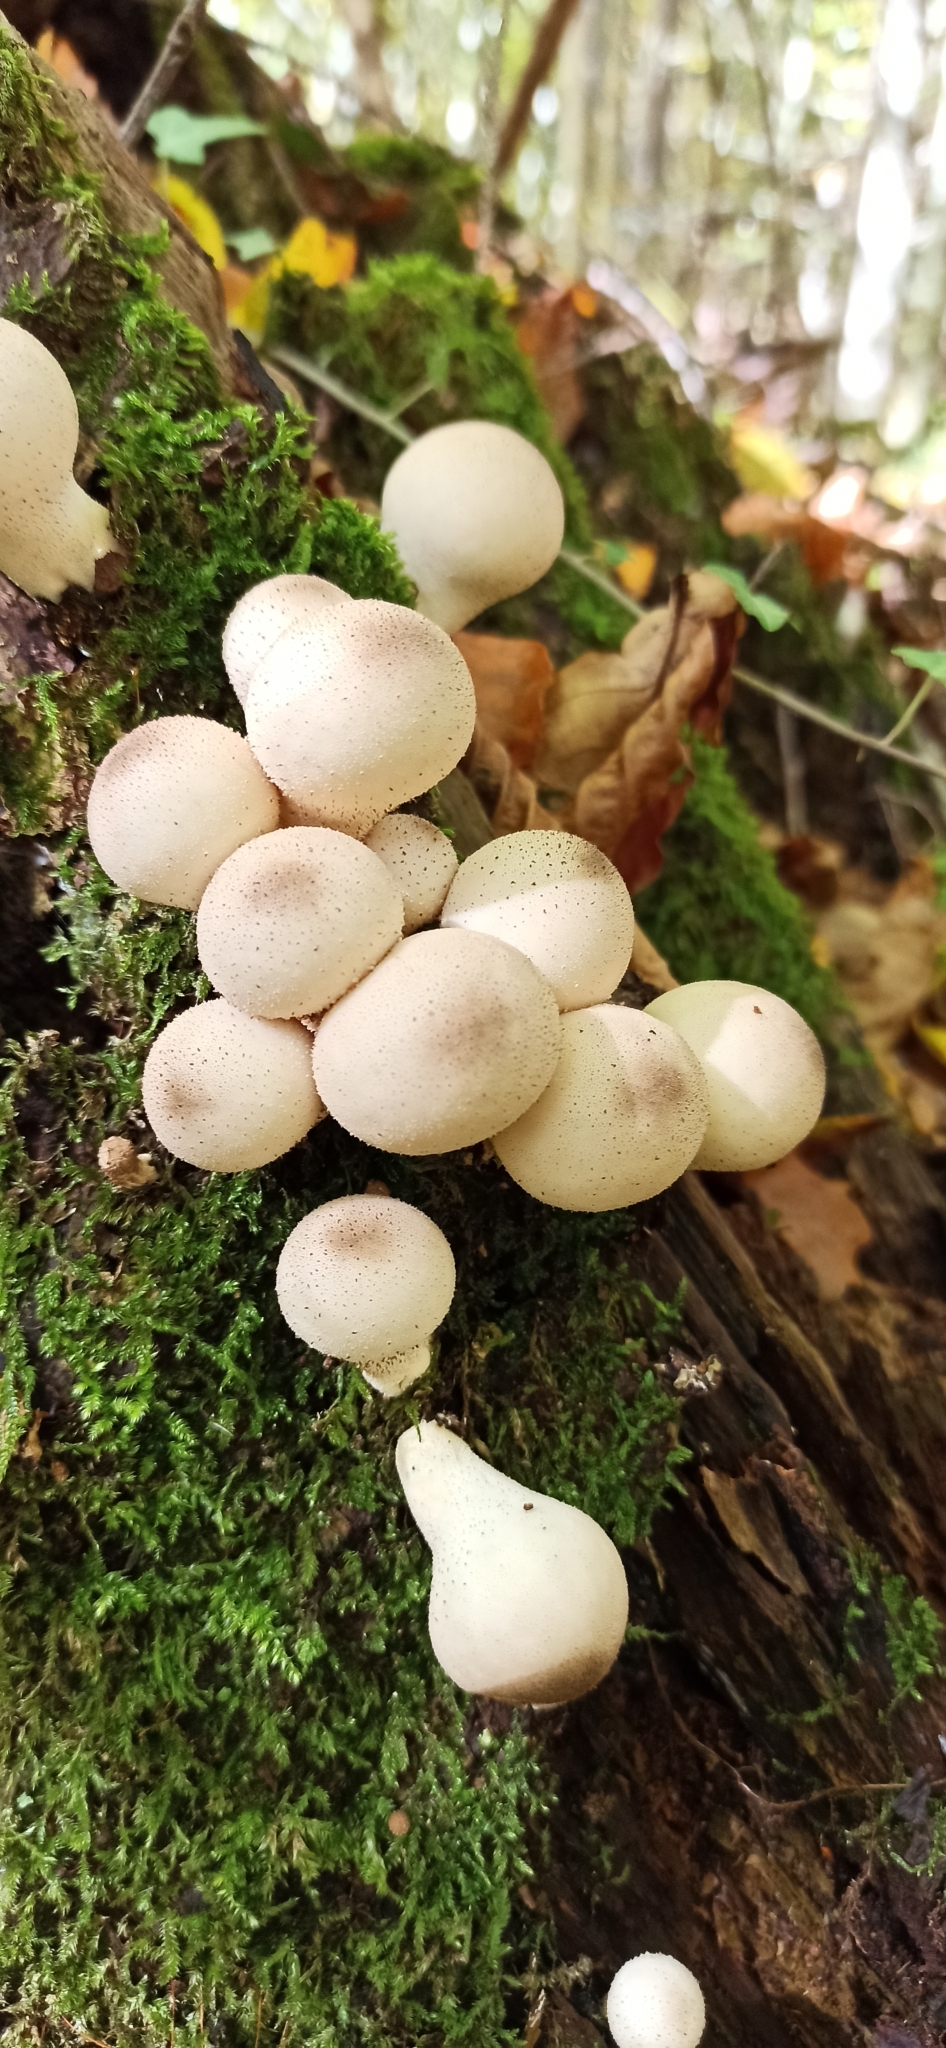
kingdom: Fungi
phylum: Basidiomycota
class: Agaricomycetes
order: Agaricales
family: Lycoperdaceae
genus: Apioperdon
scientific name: Apioperdon pyriforme
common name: Pear-shaped puffball
